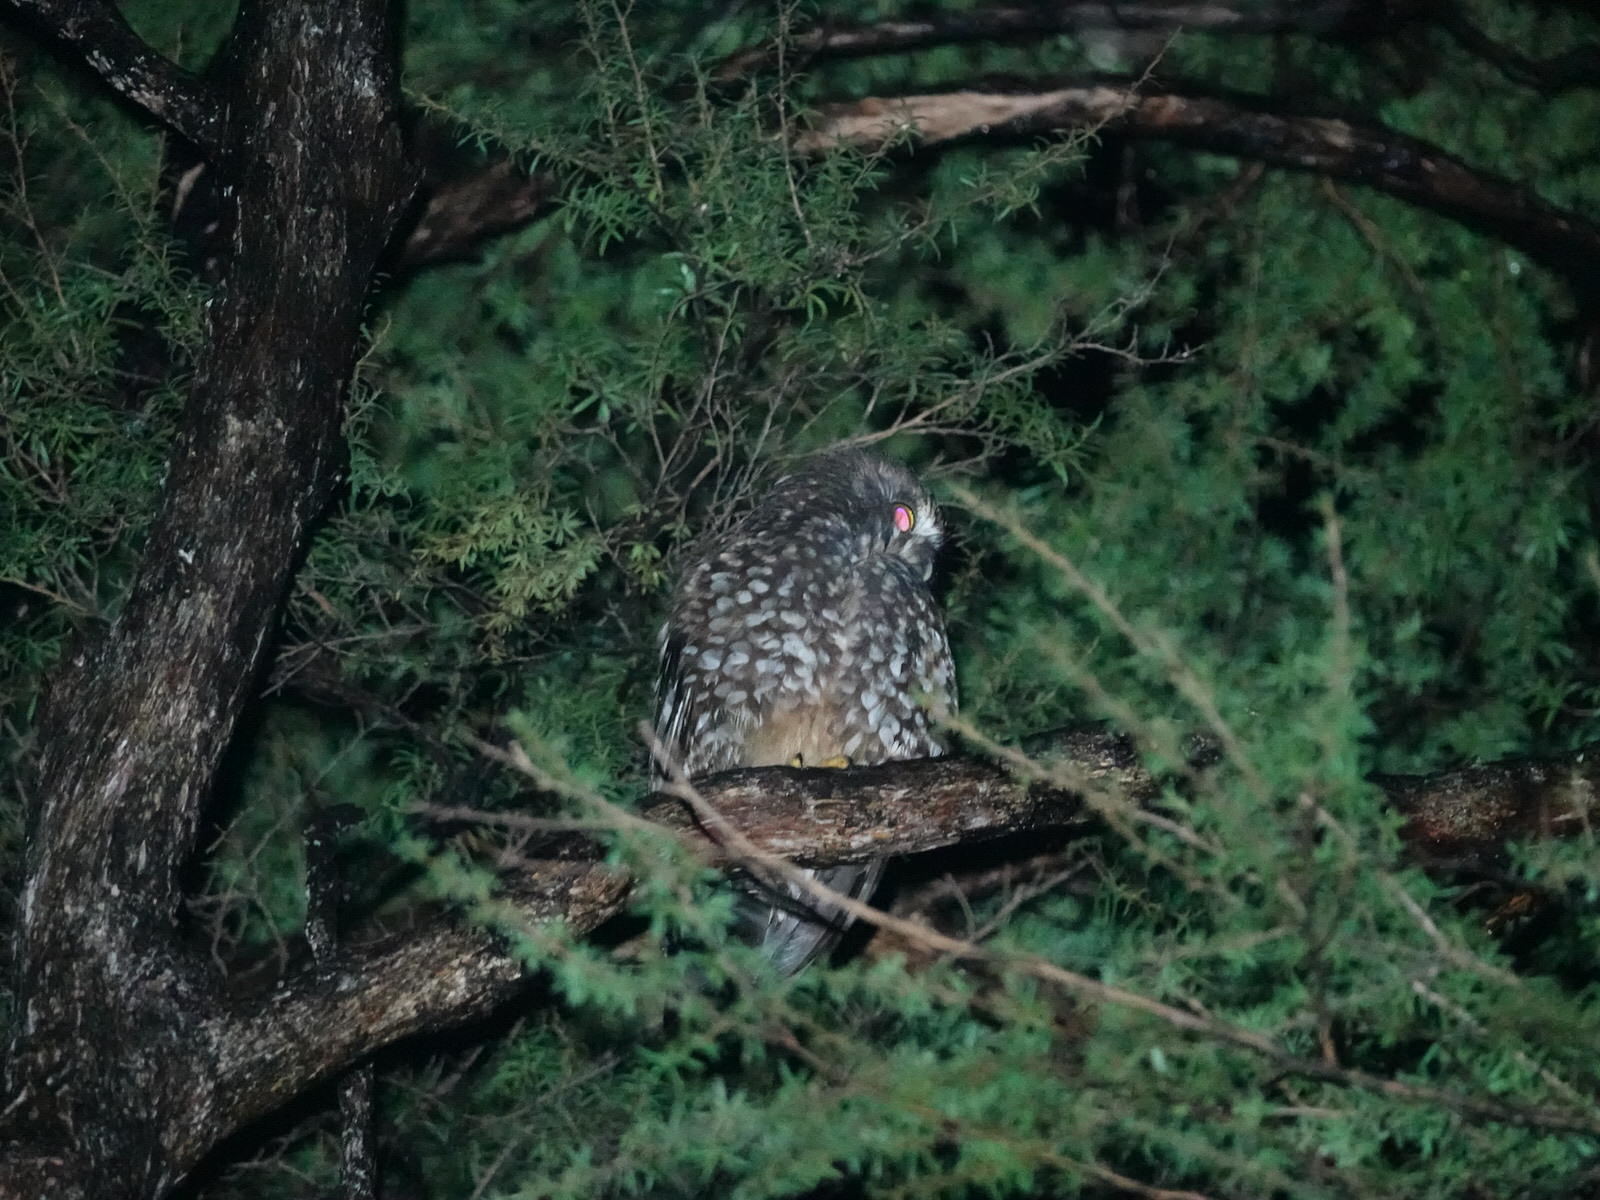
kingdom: Animalia
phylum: Chordata
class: Aves
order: Strigiformes
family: Strigidae
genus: Ninox
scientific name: Ninox novaeseelandiae
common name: Morepork
